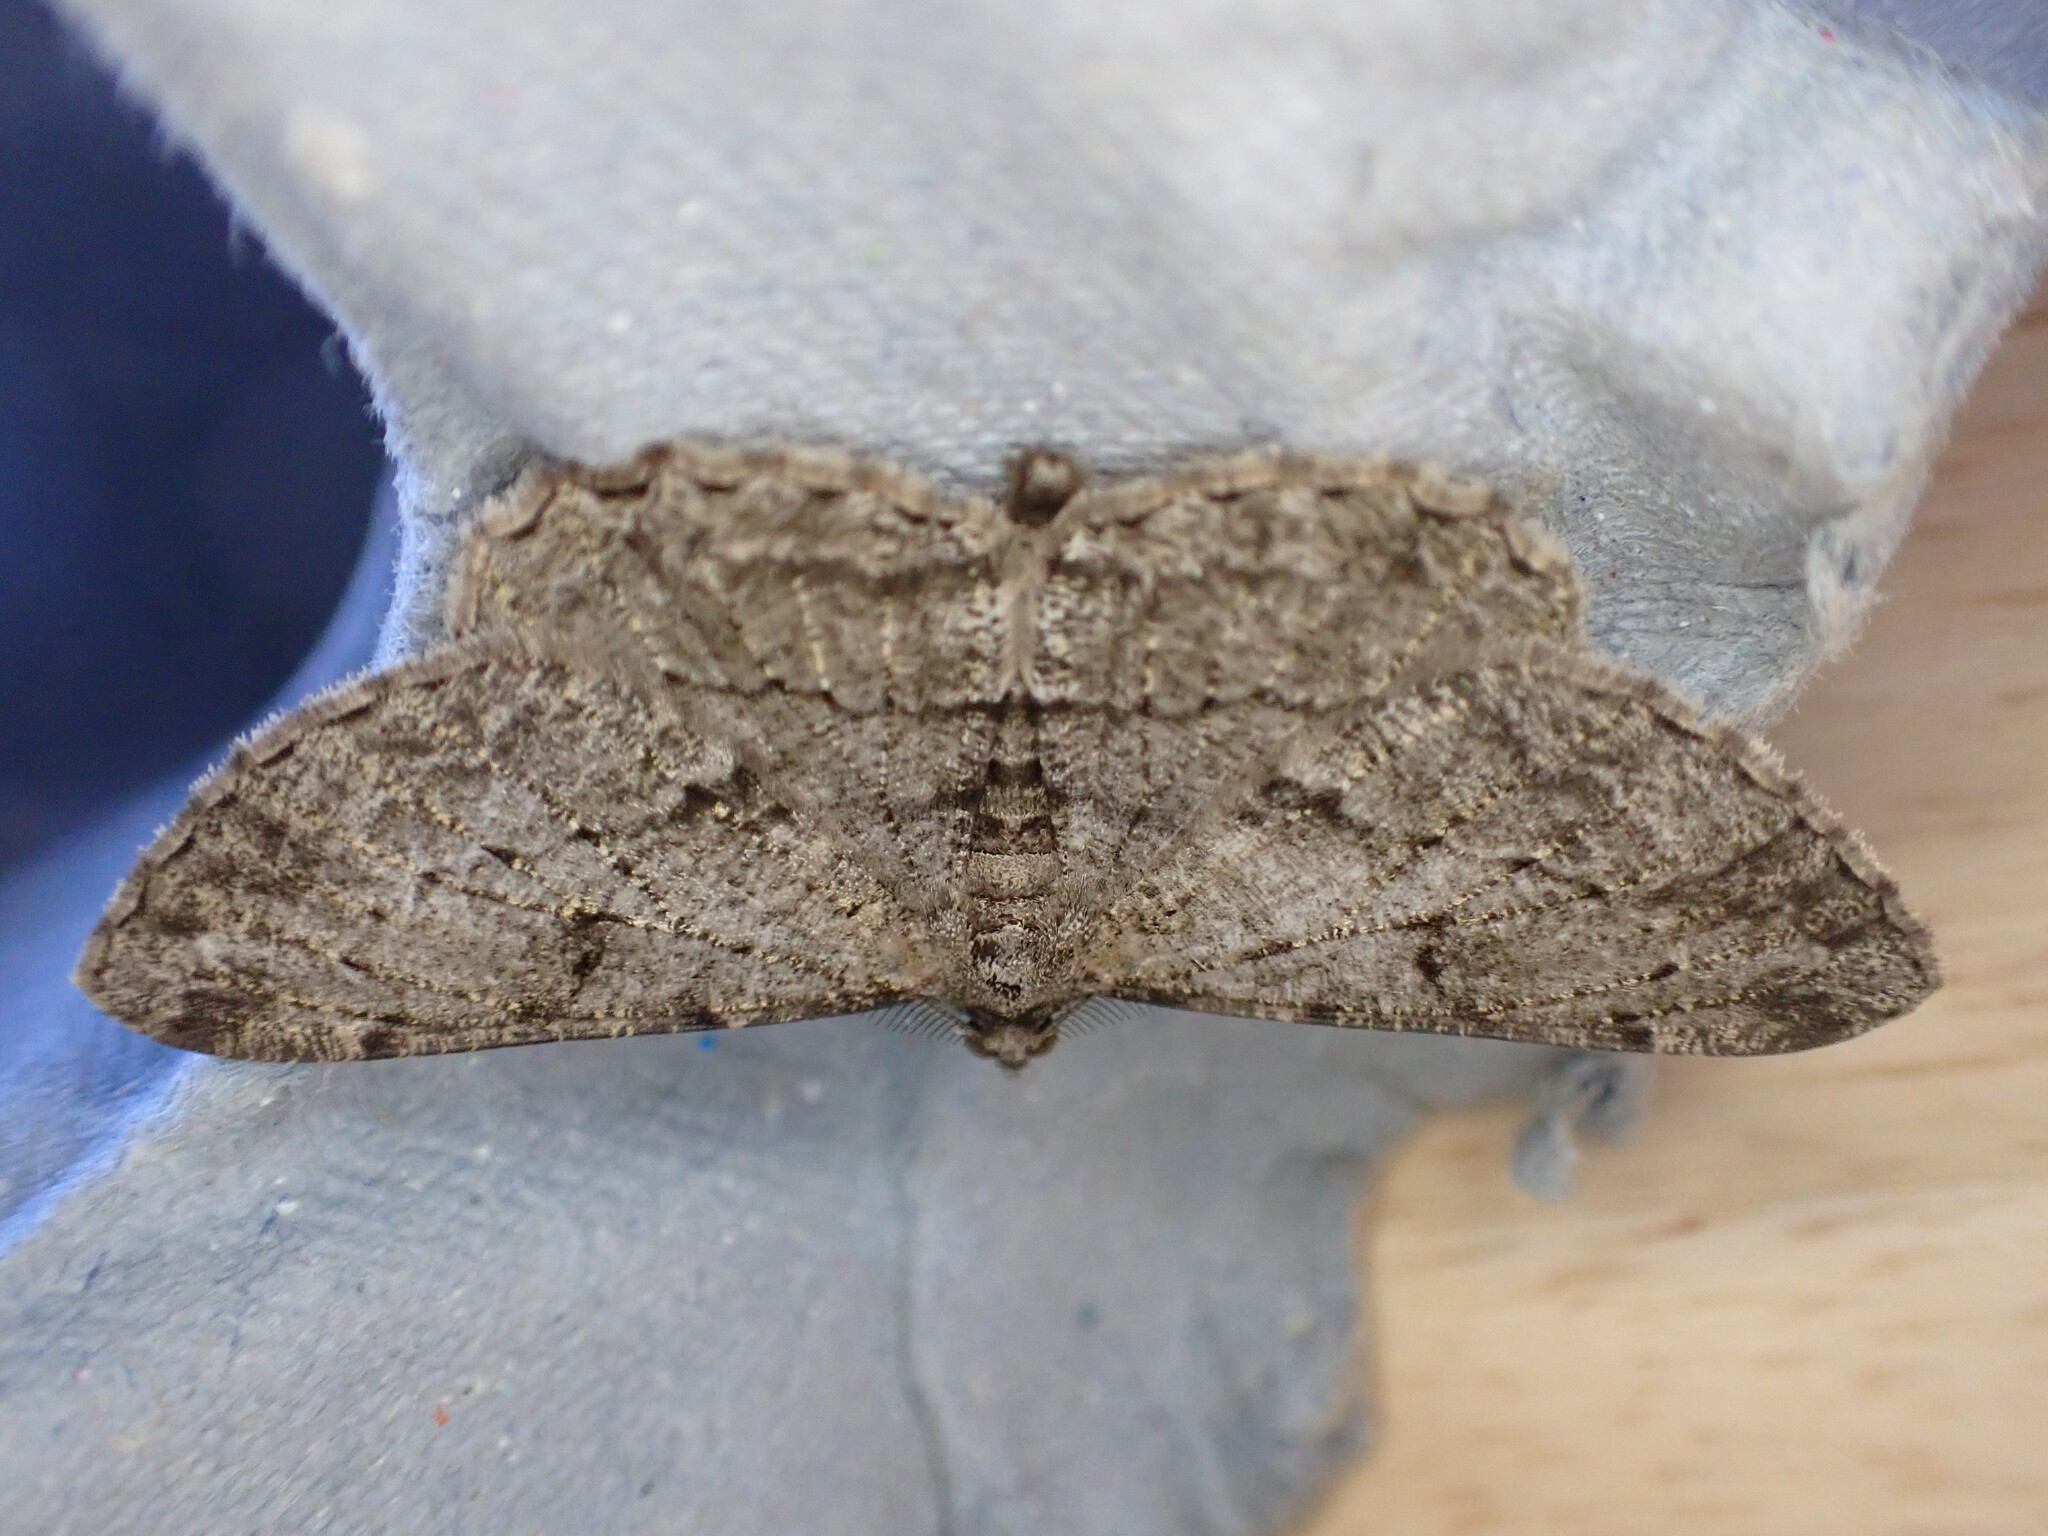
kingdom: Animalia
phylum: Arthropoda
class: Insecta
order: Lepidoptera
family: Geometridae
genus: Peribatodes
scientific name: Peribatodes rhomboidaria
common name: Willow beauty
